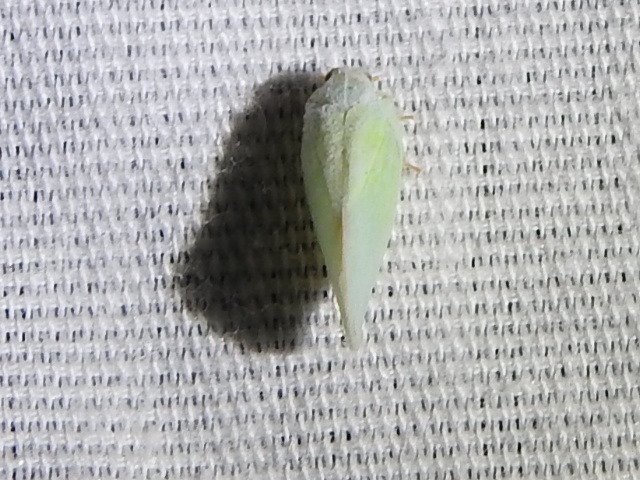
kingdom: Animalia
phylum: Arthropoda
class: Insecta
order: Hemiptera
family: Flatidae
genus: Ormenoides
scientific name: Ormenoides venusta
